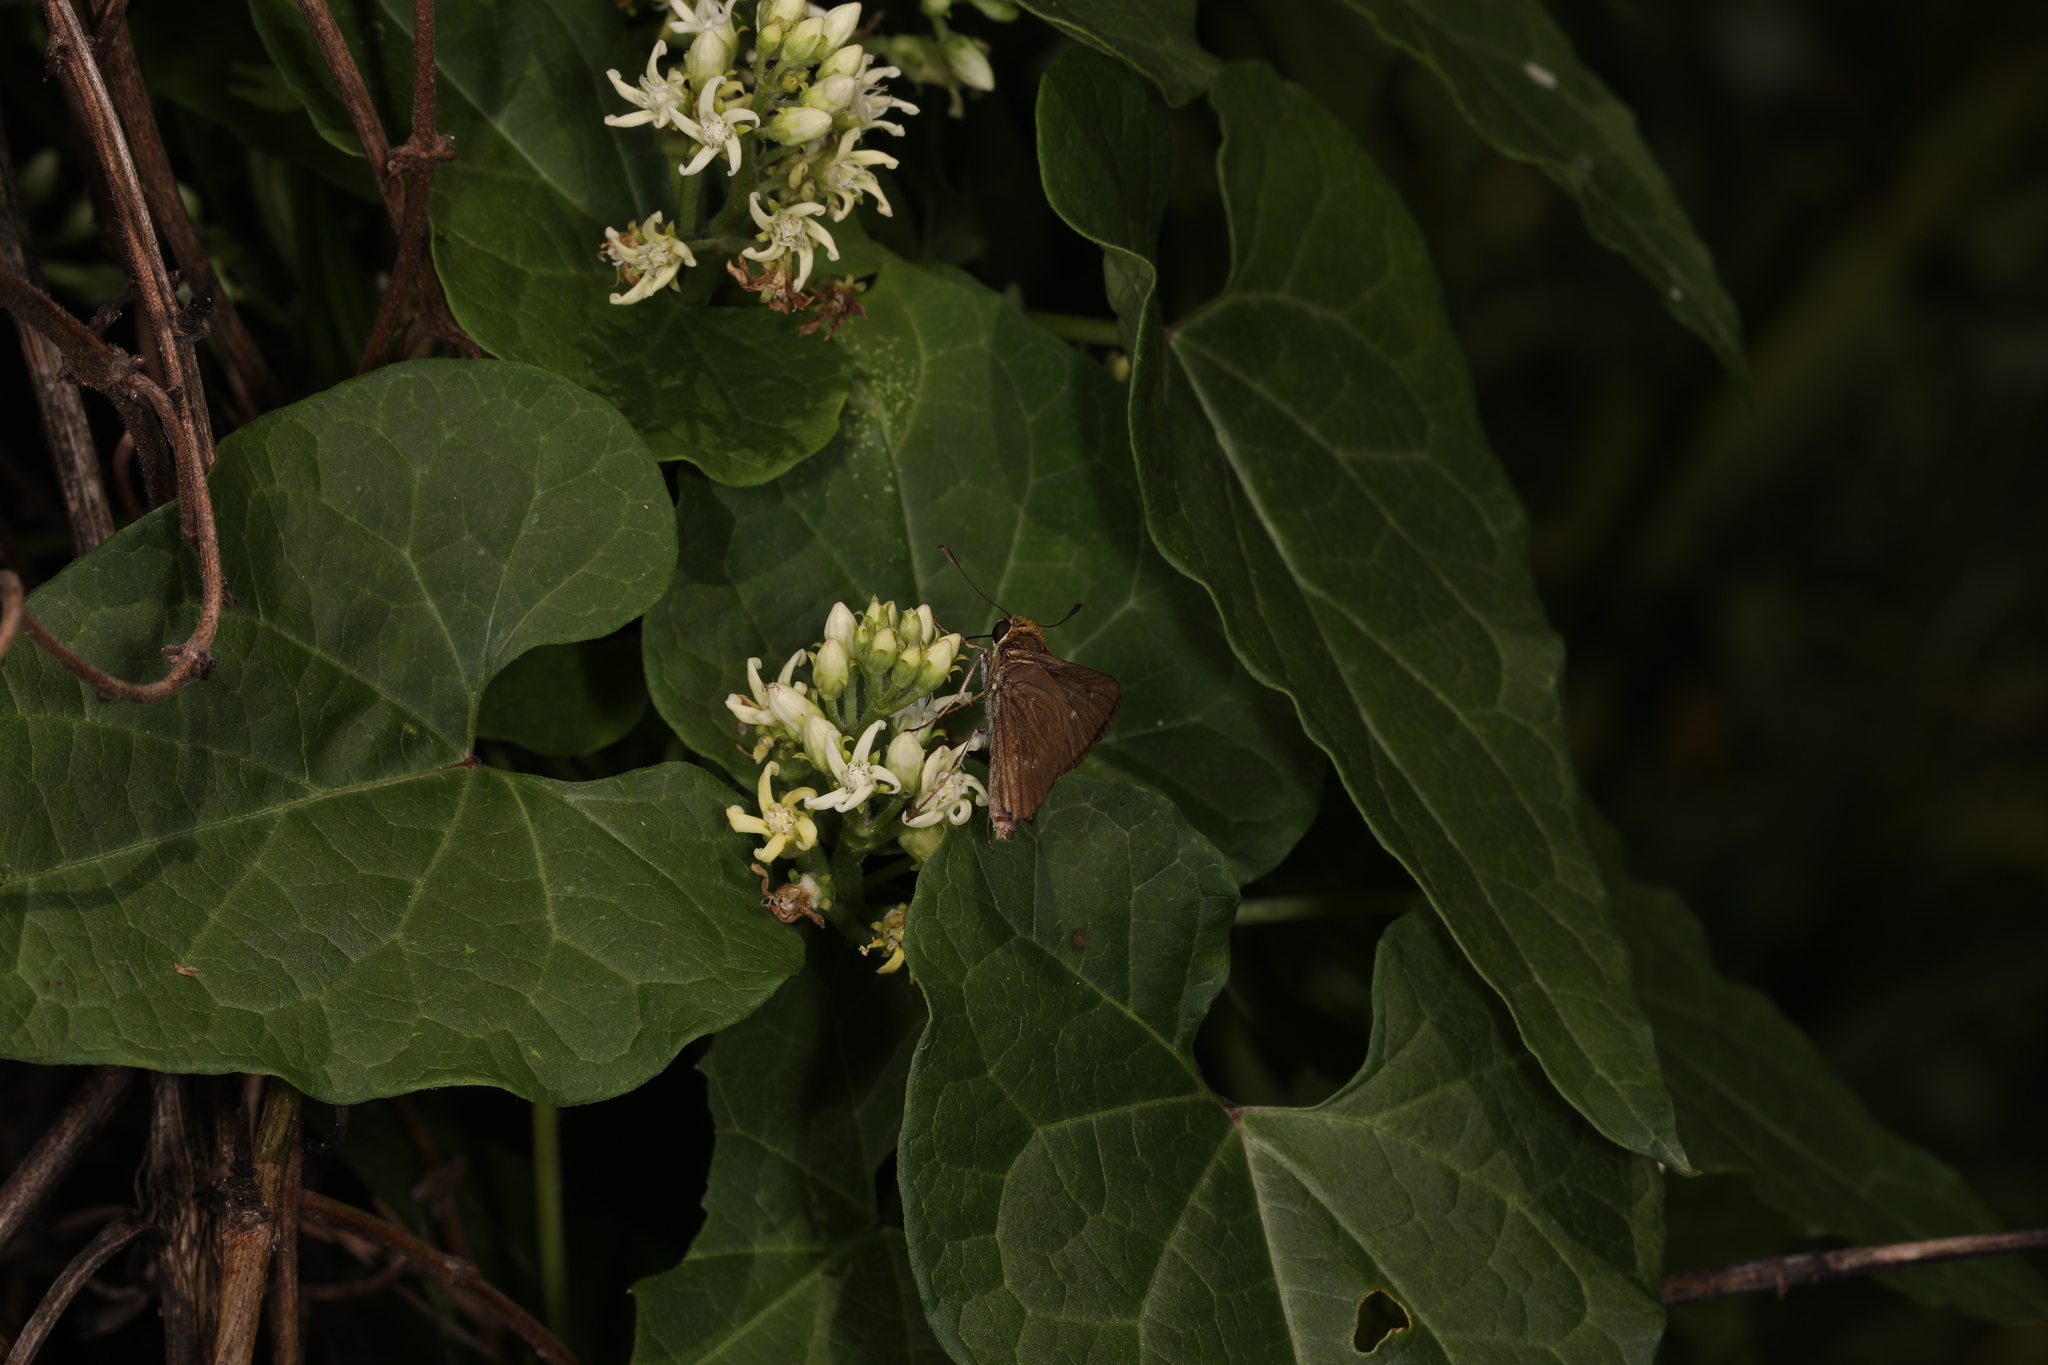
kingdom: Plantae
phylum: Tracheophyta
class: Magnoliopsida
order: Gentianales
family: Apocynaceae
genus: Cynanchum
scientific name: Cynanchum laeve
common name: Sandvine
